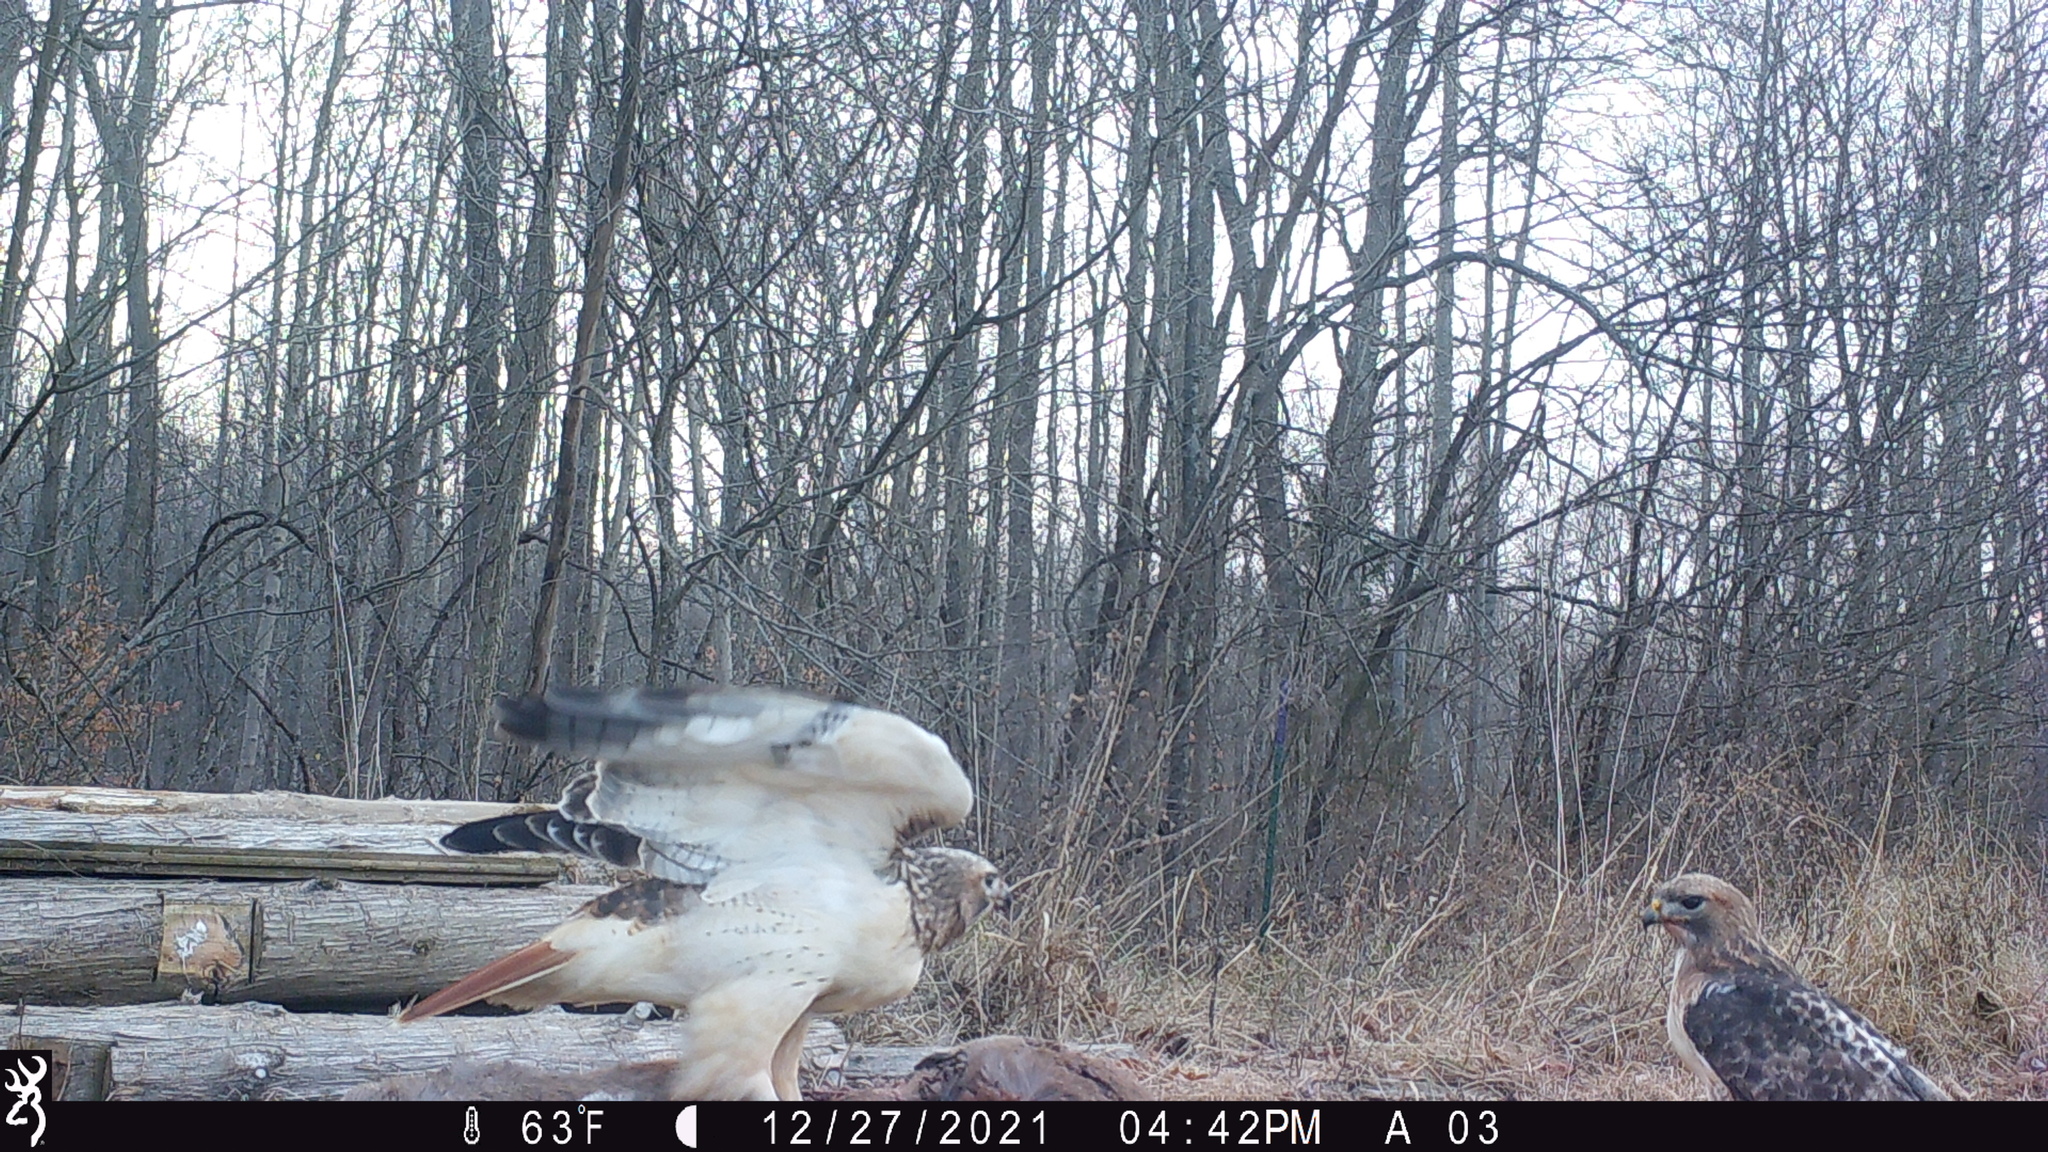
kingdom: Animalia
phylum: Chordata
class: Aves
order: Accipitriformes
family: Accipitridae
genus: Buteo
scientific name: Buteo jamaicensis
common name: Red-tailed hawk
